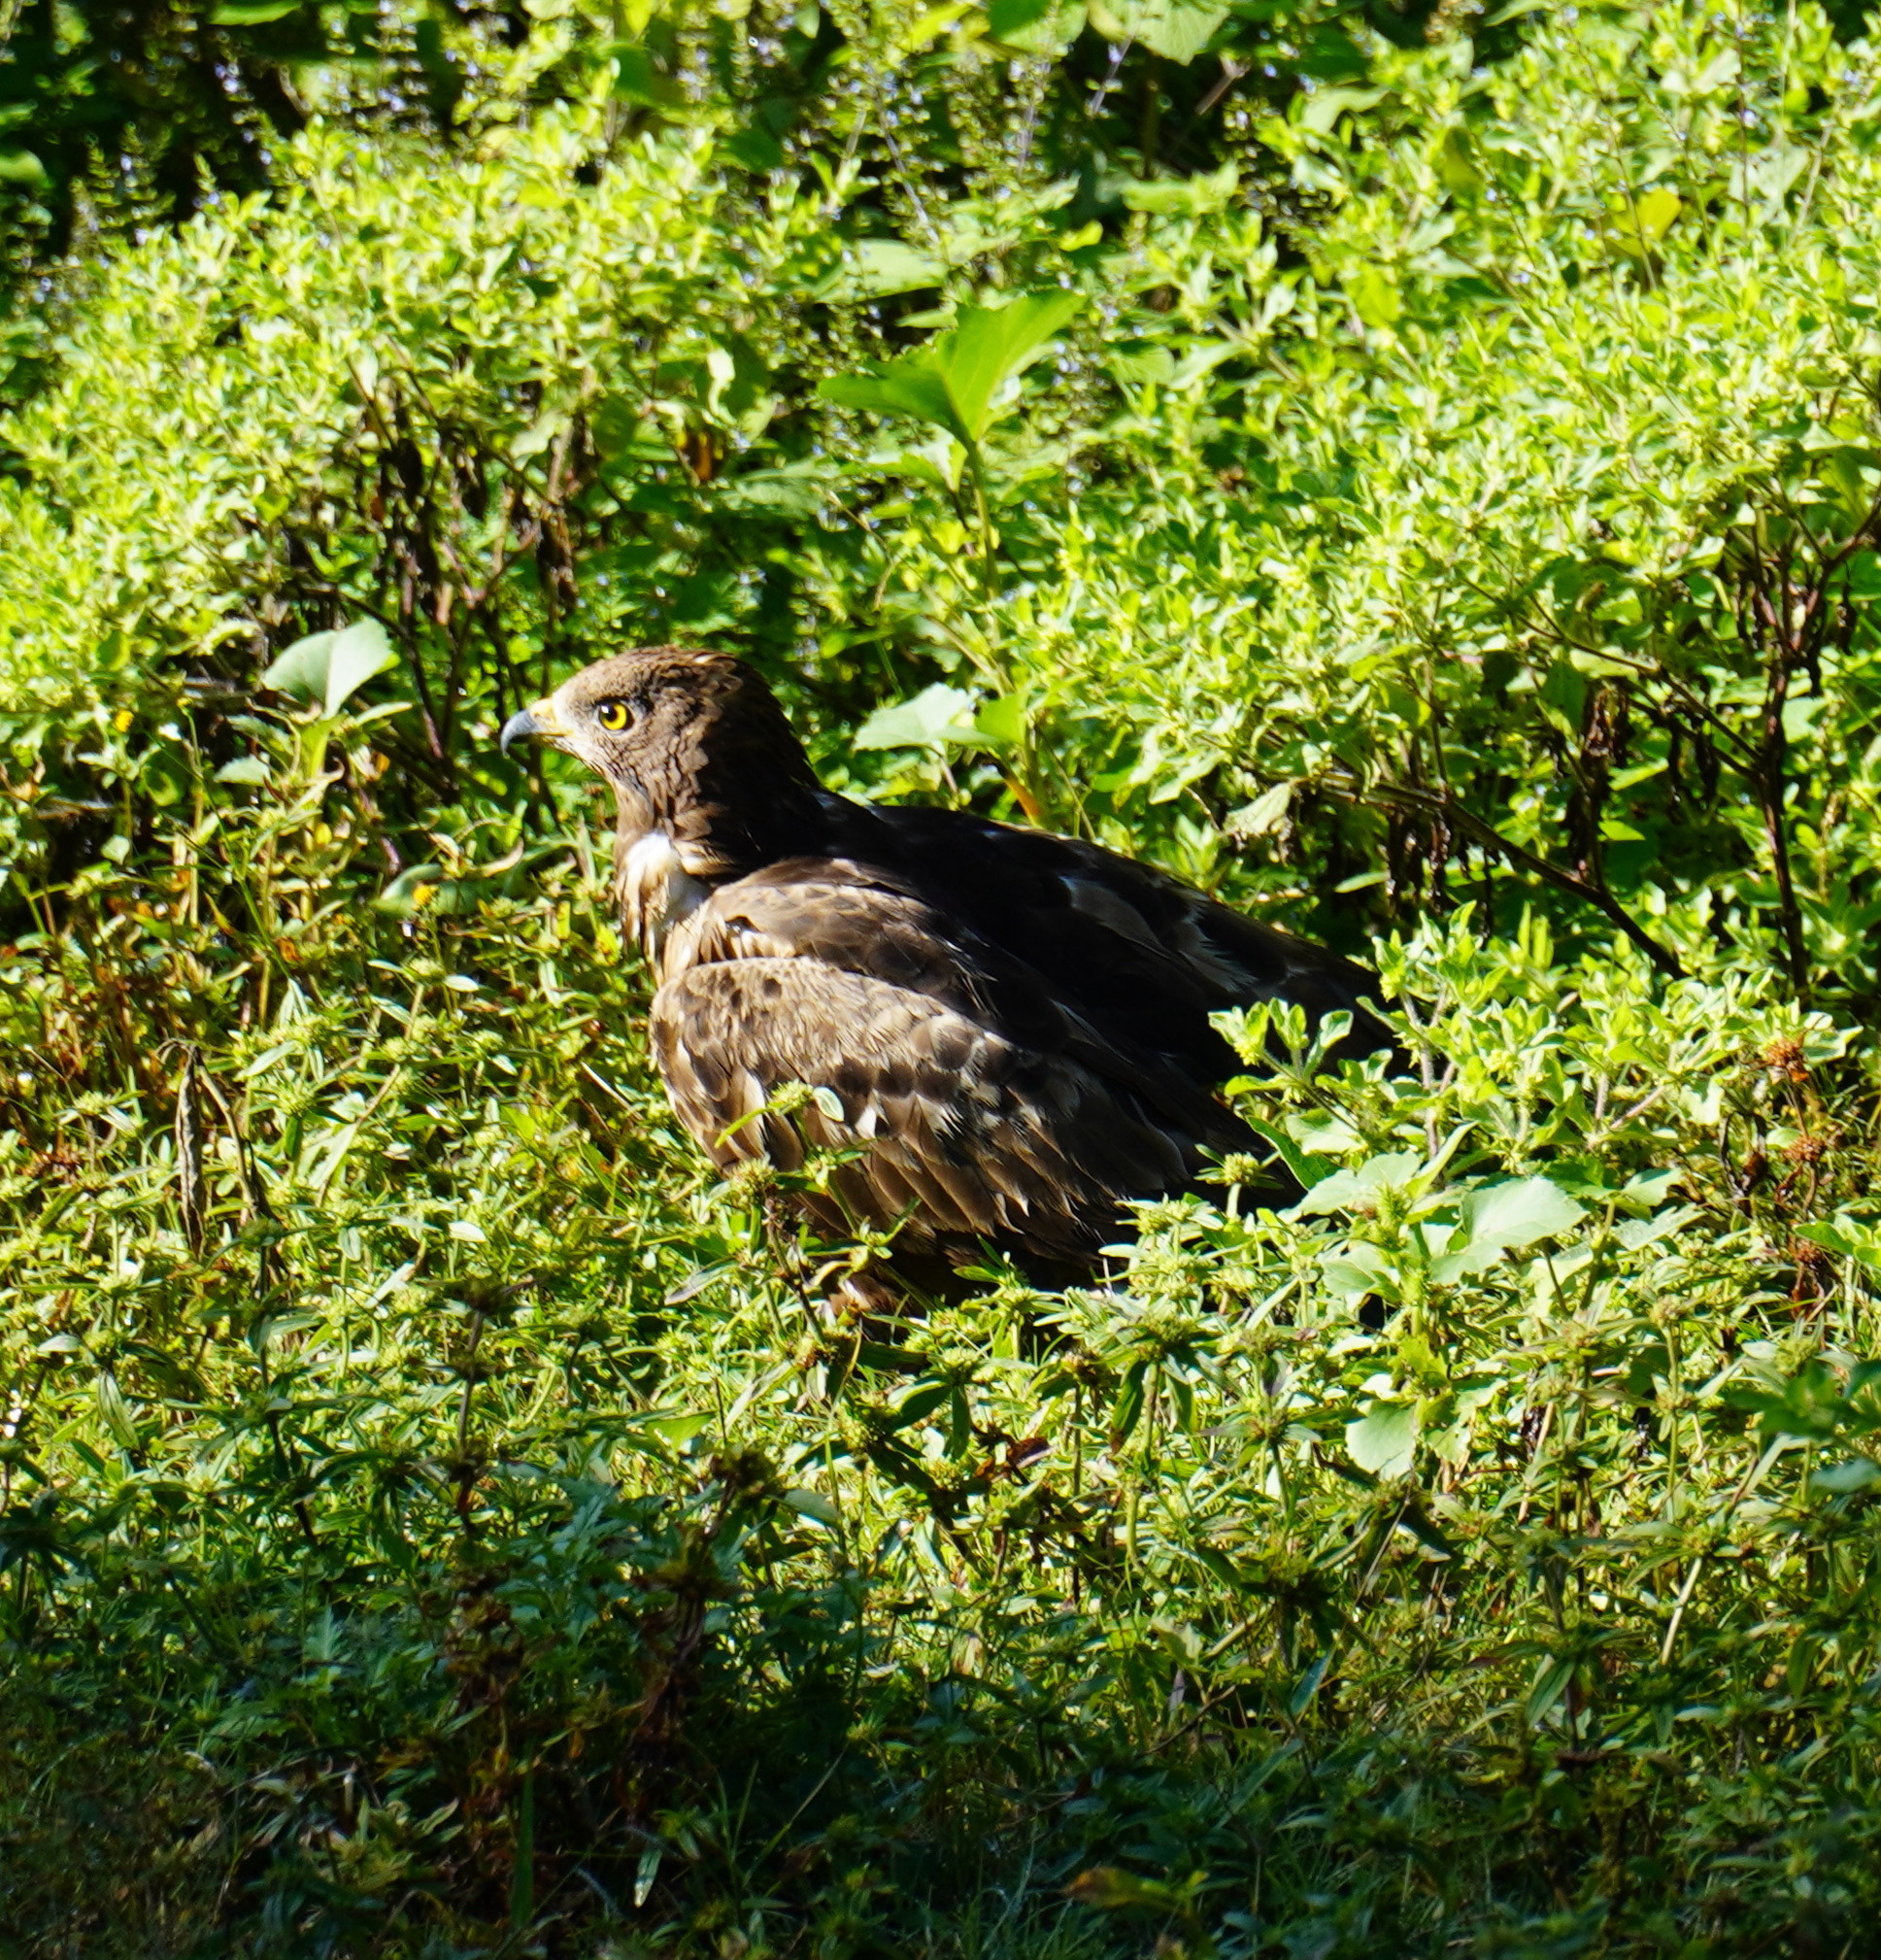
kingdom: Animalia
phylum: Chordata
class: Aves
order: Accipitriformes
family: Accipitridae
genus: Pernis
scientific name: Pernis apivorus
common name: European honey buzzard
